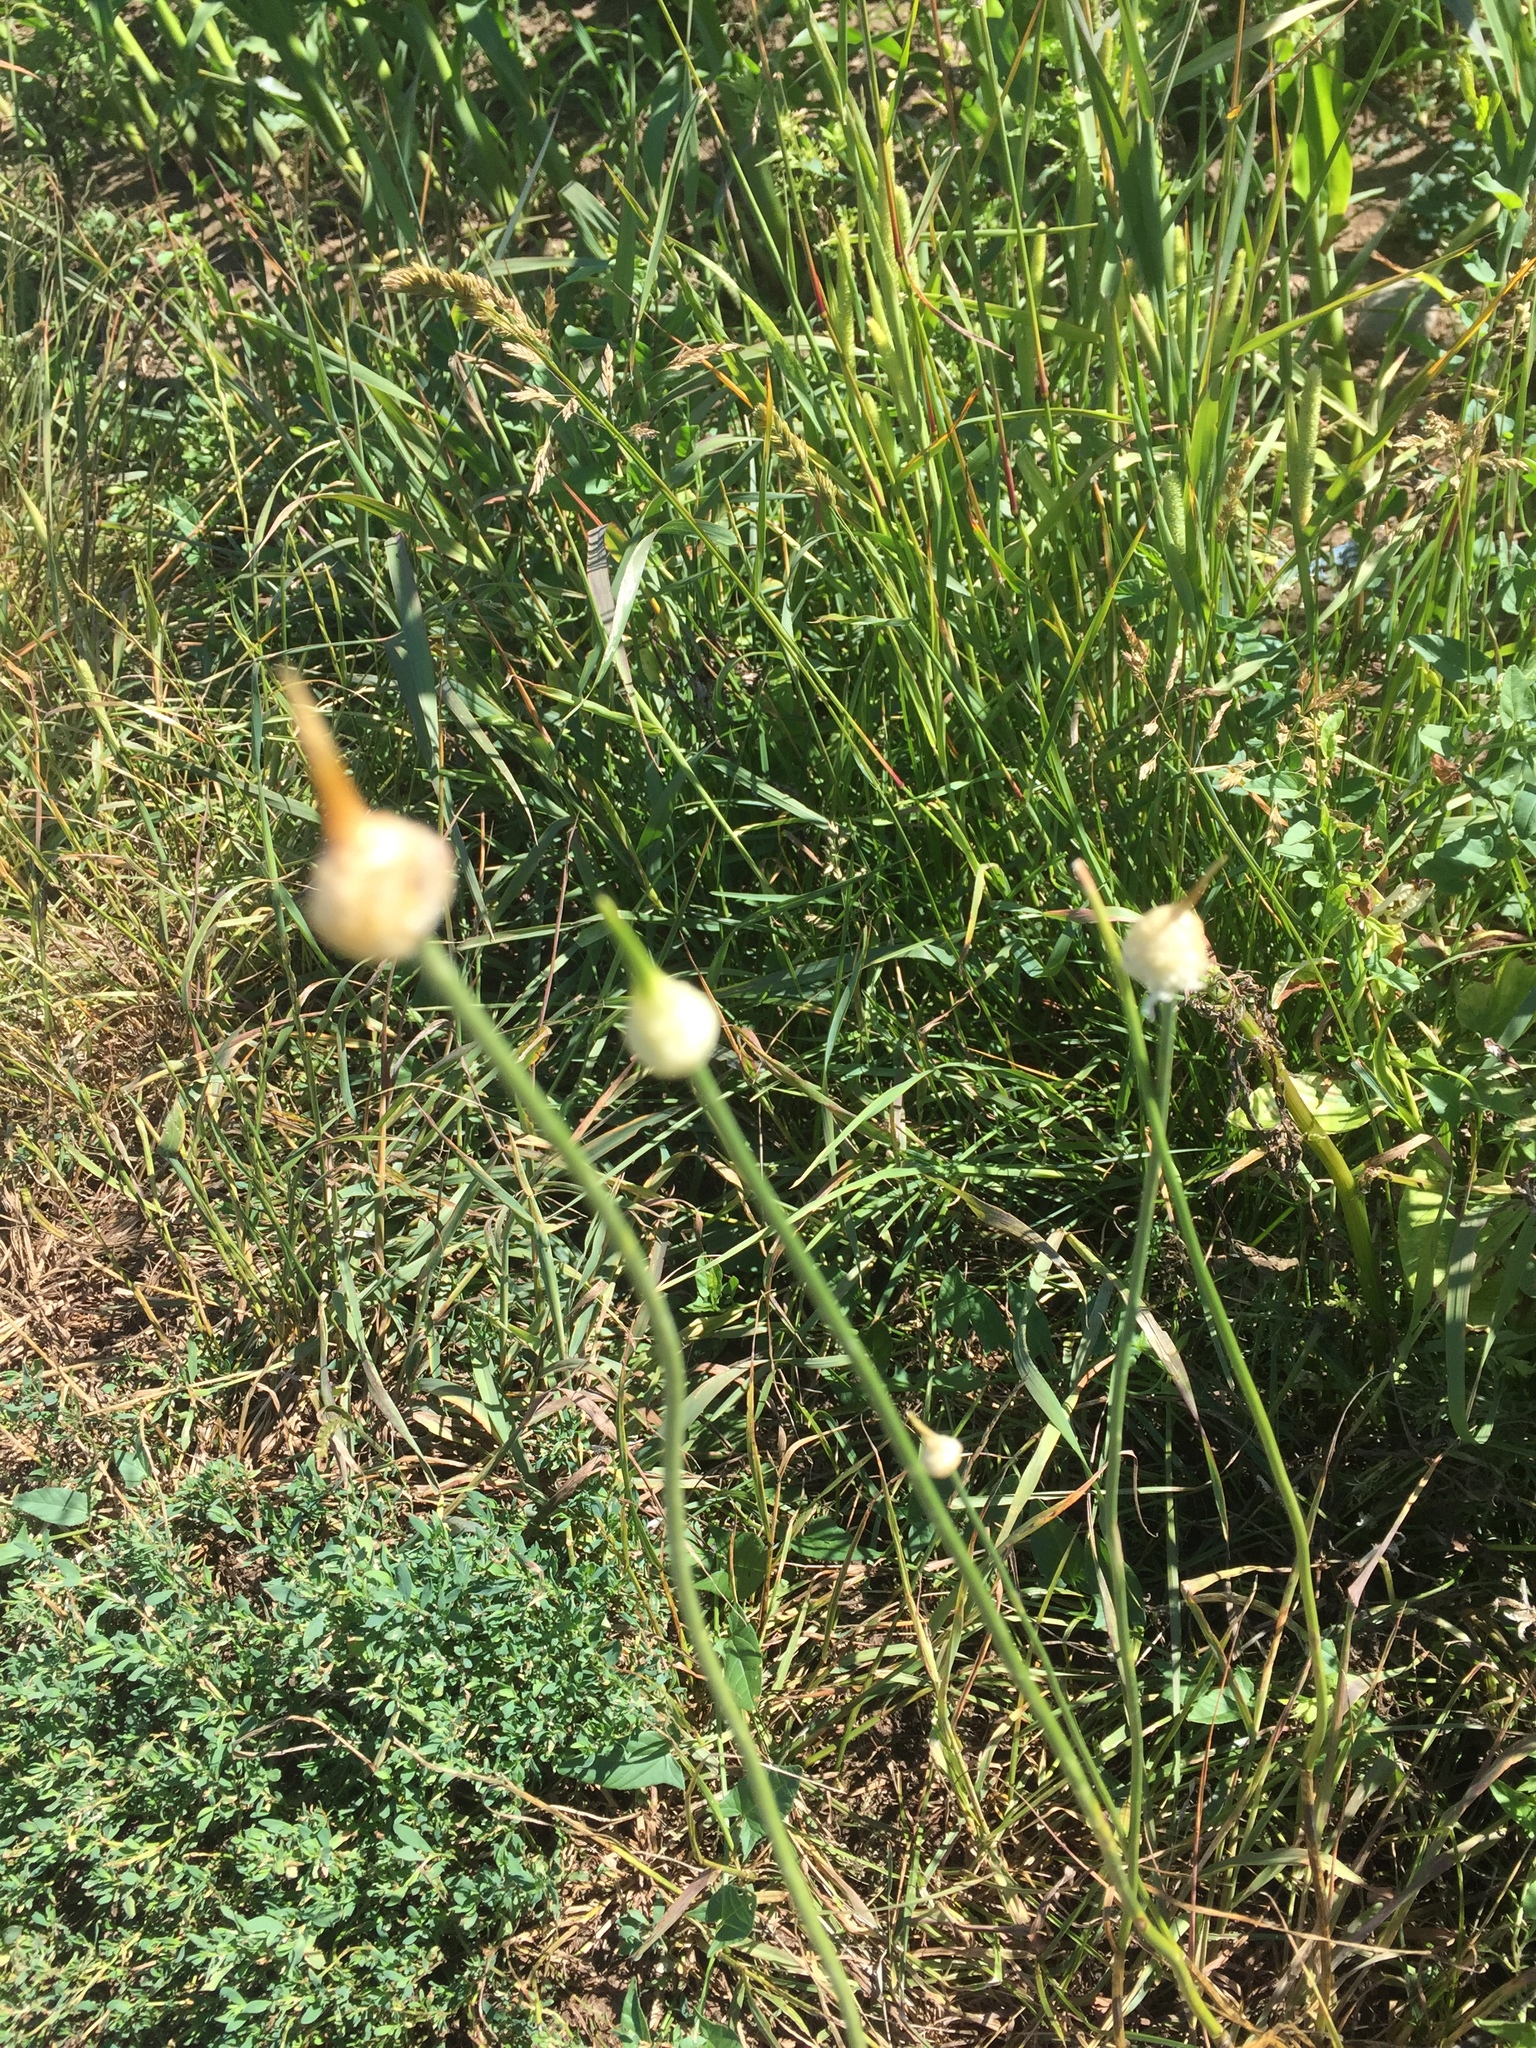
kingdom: Plantae
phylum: Tracheophyta
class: Liliopsida
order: Asparagales
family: Amaryllidaceae
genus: Allium
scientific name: Allium vineale
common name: Crow garlic
